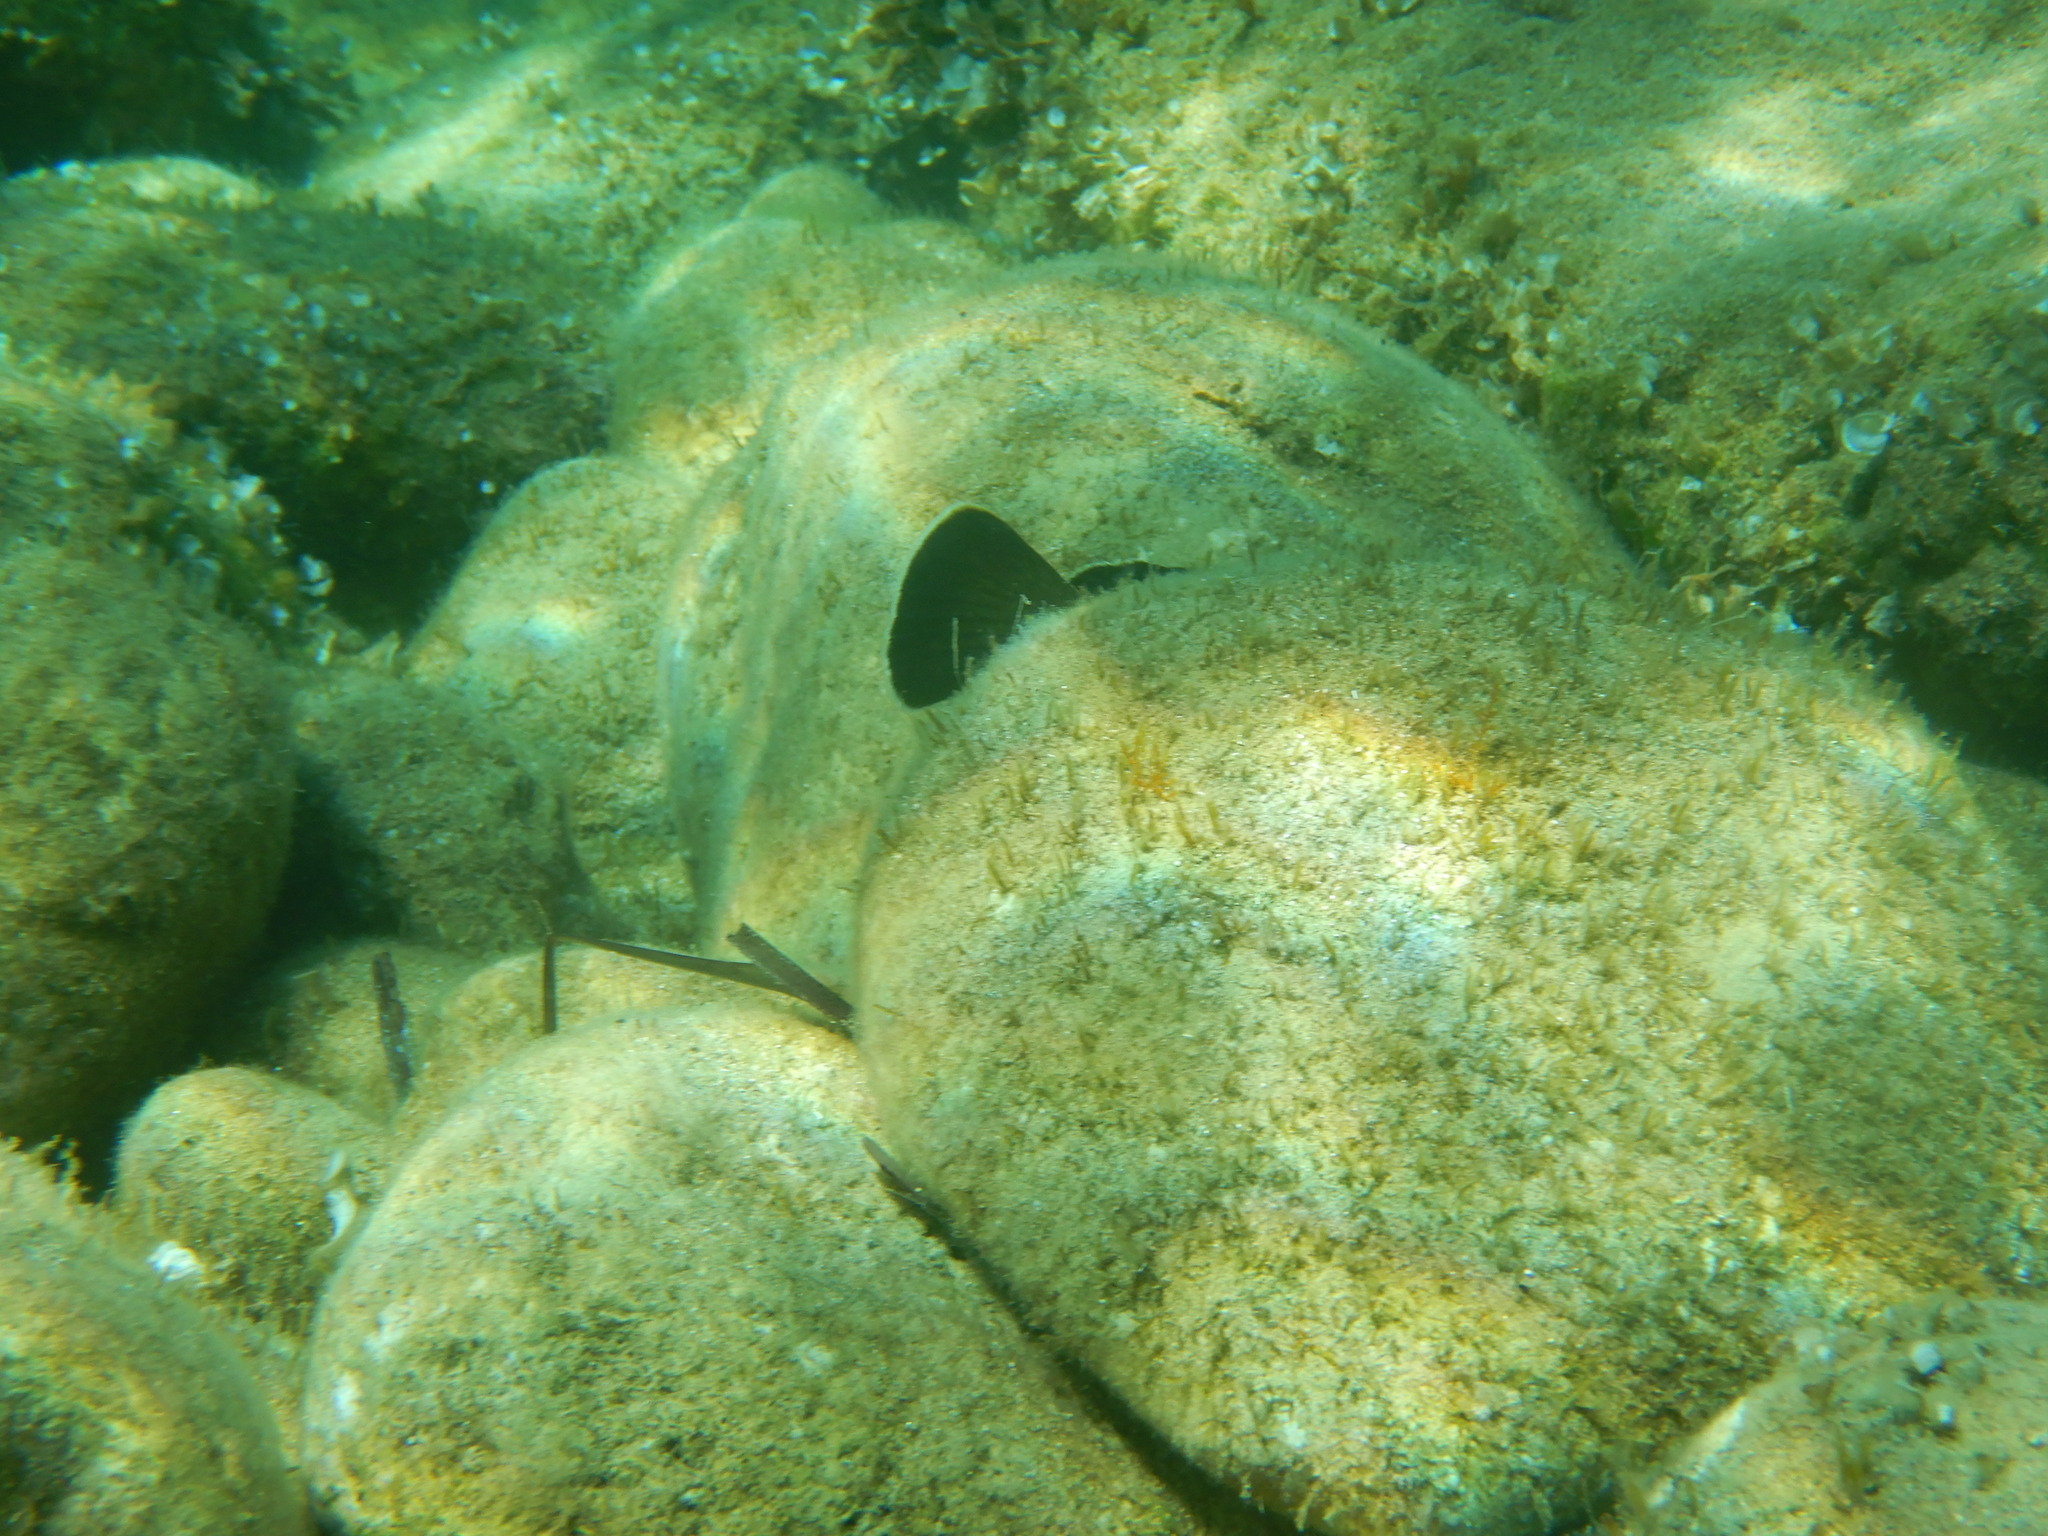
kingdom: Animalia
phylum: Chordata
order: Perciformes
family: Serranidae
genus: Epinephelus
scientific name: Epinephelus marginatus
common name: Dusky grouper
